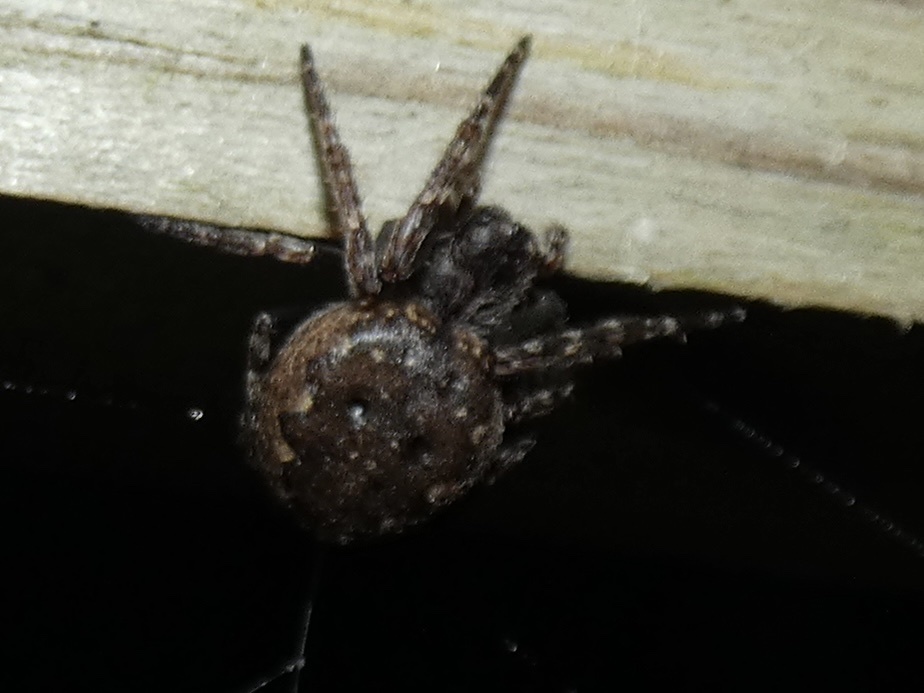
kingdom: Animalia
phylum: Arthropoda
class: Arachnida
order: Araneae
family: Araneidae
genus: Nuctenea
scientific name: Nuctenea umbratica
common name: Toad spider
